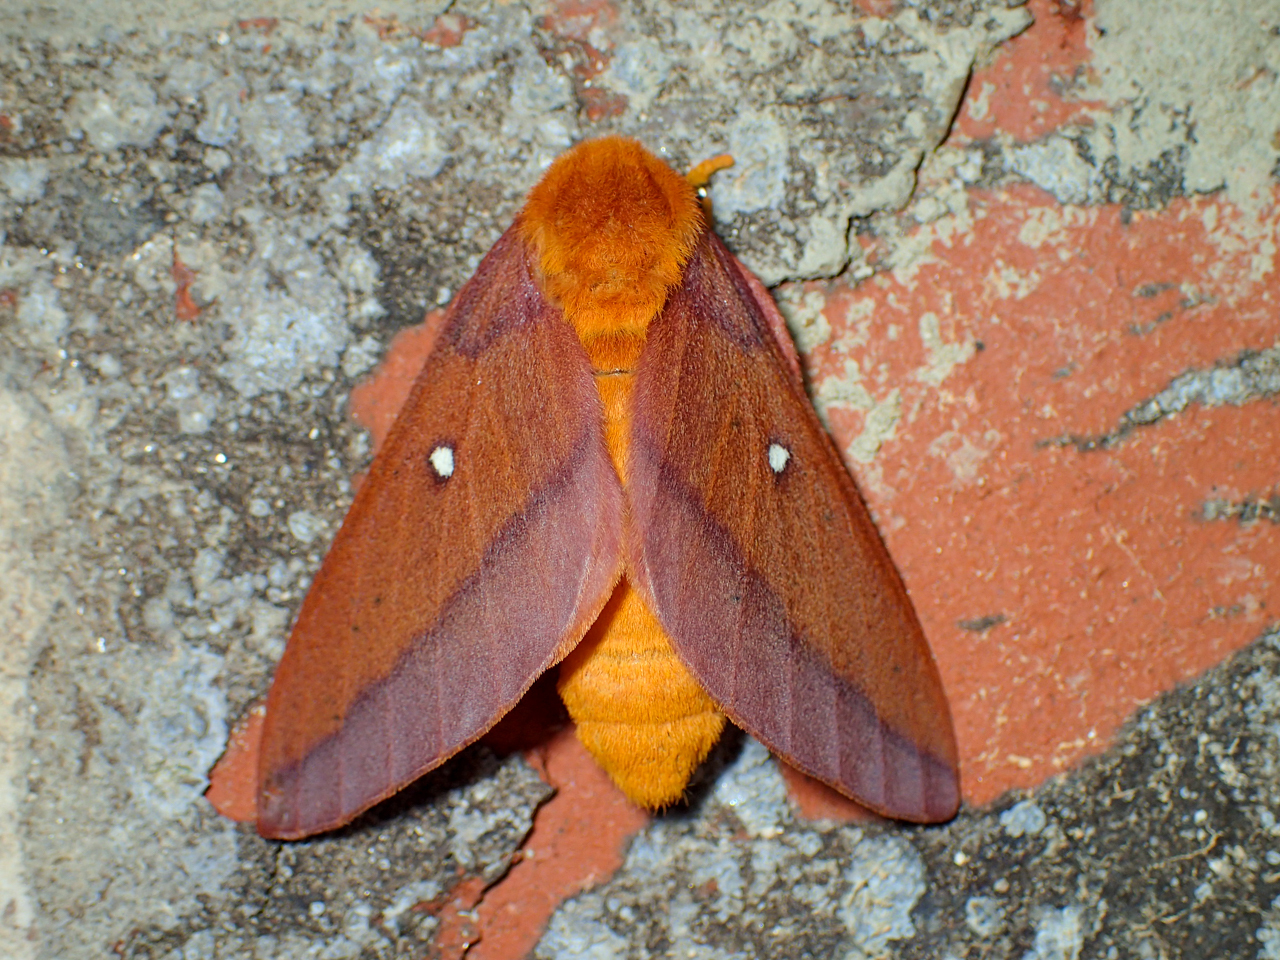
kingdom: Animalia
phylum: Arthropoda
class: Insecta
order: Lepidoptera
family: Saturniidae
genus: Anisota
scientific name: Anisota virginiensis
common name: Pink striped oakworm moth
